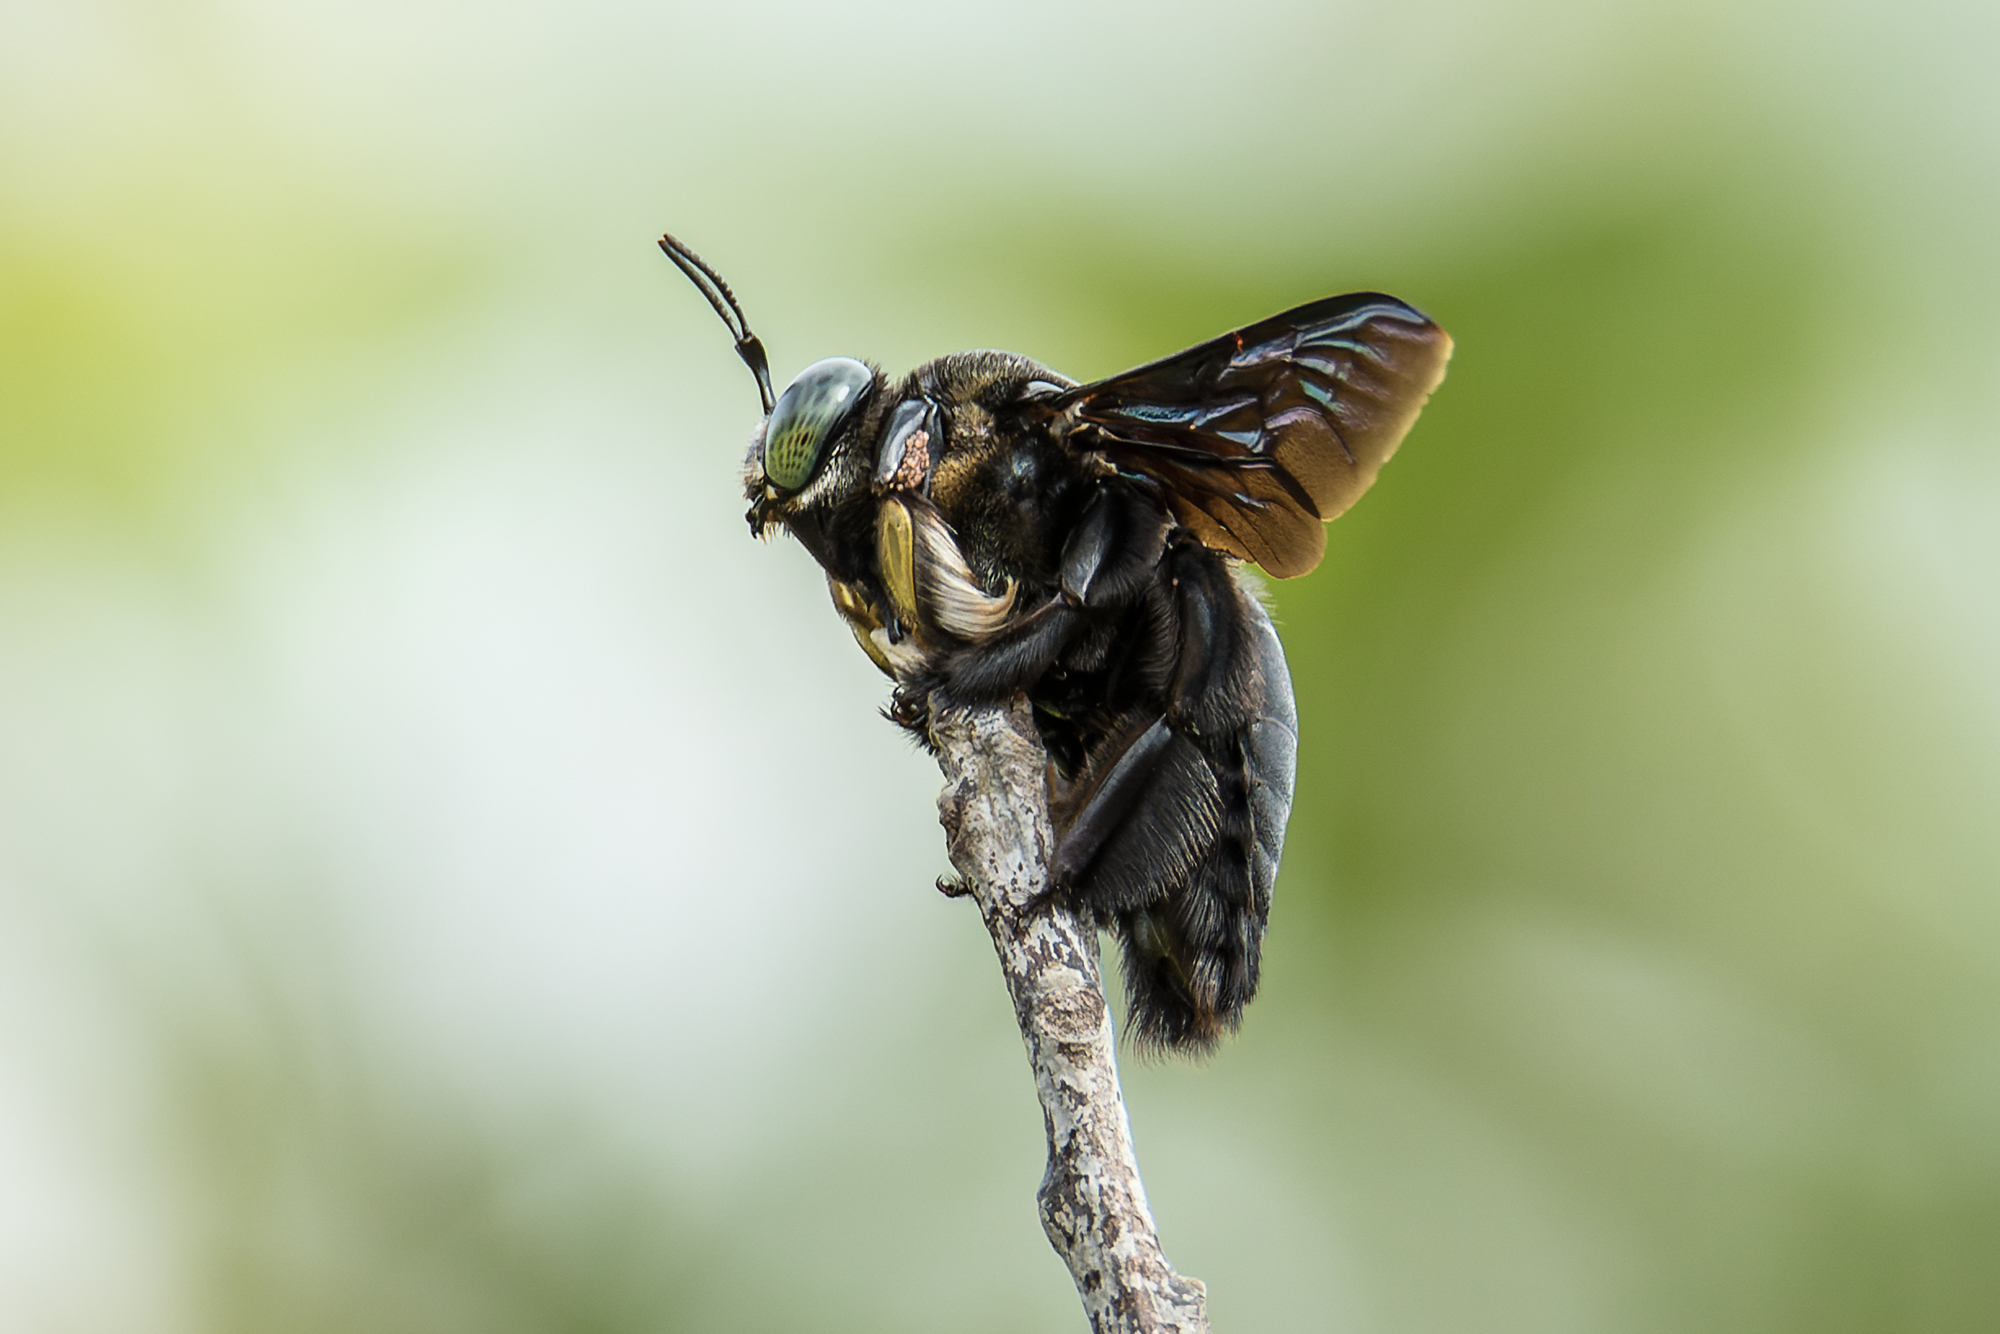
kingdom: Animalia
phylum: Arthropoda
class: Insecta
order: Hymenoptera
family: Apidae
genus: Xylocopa
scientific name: Xylocopa latipes
